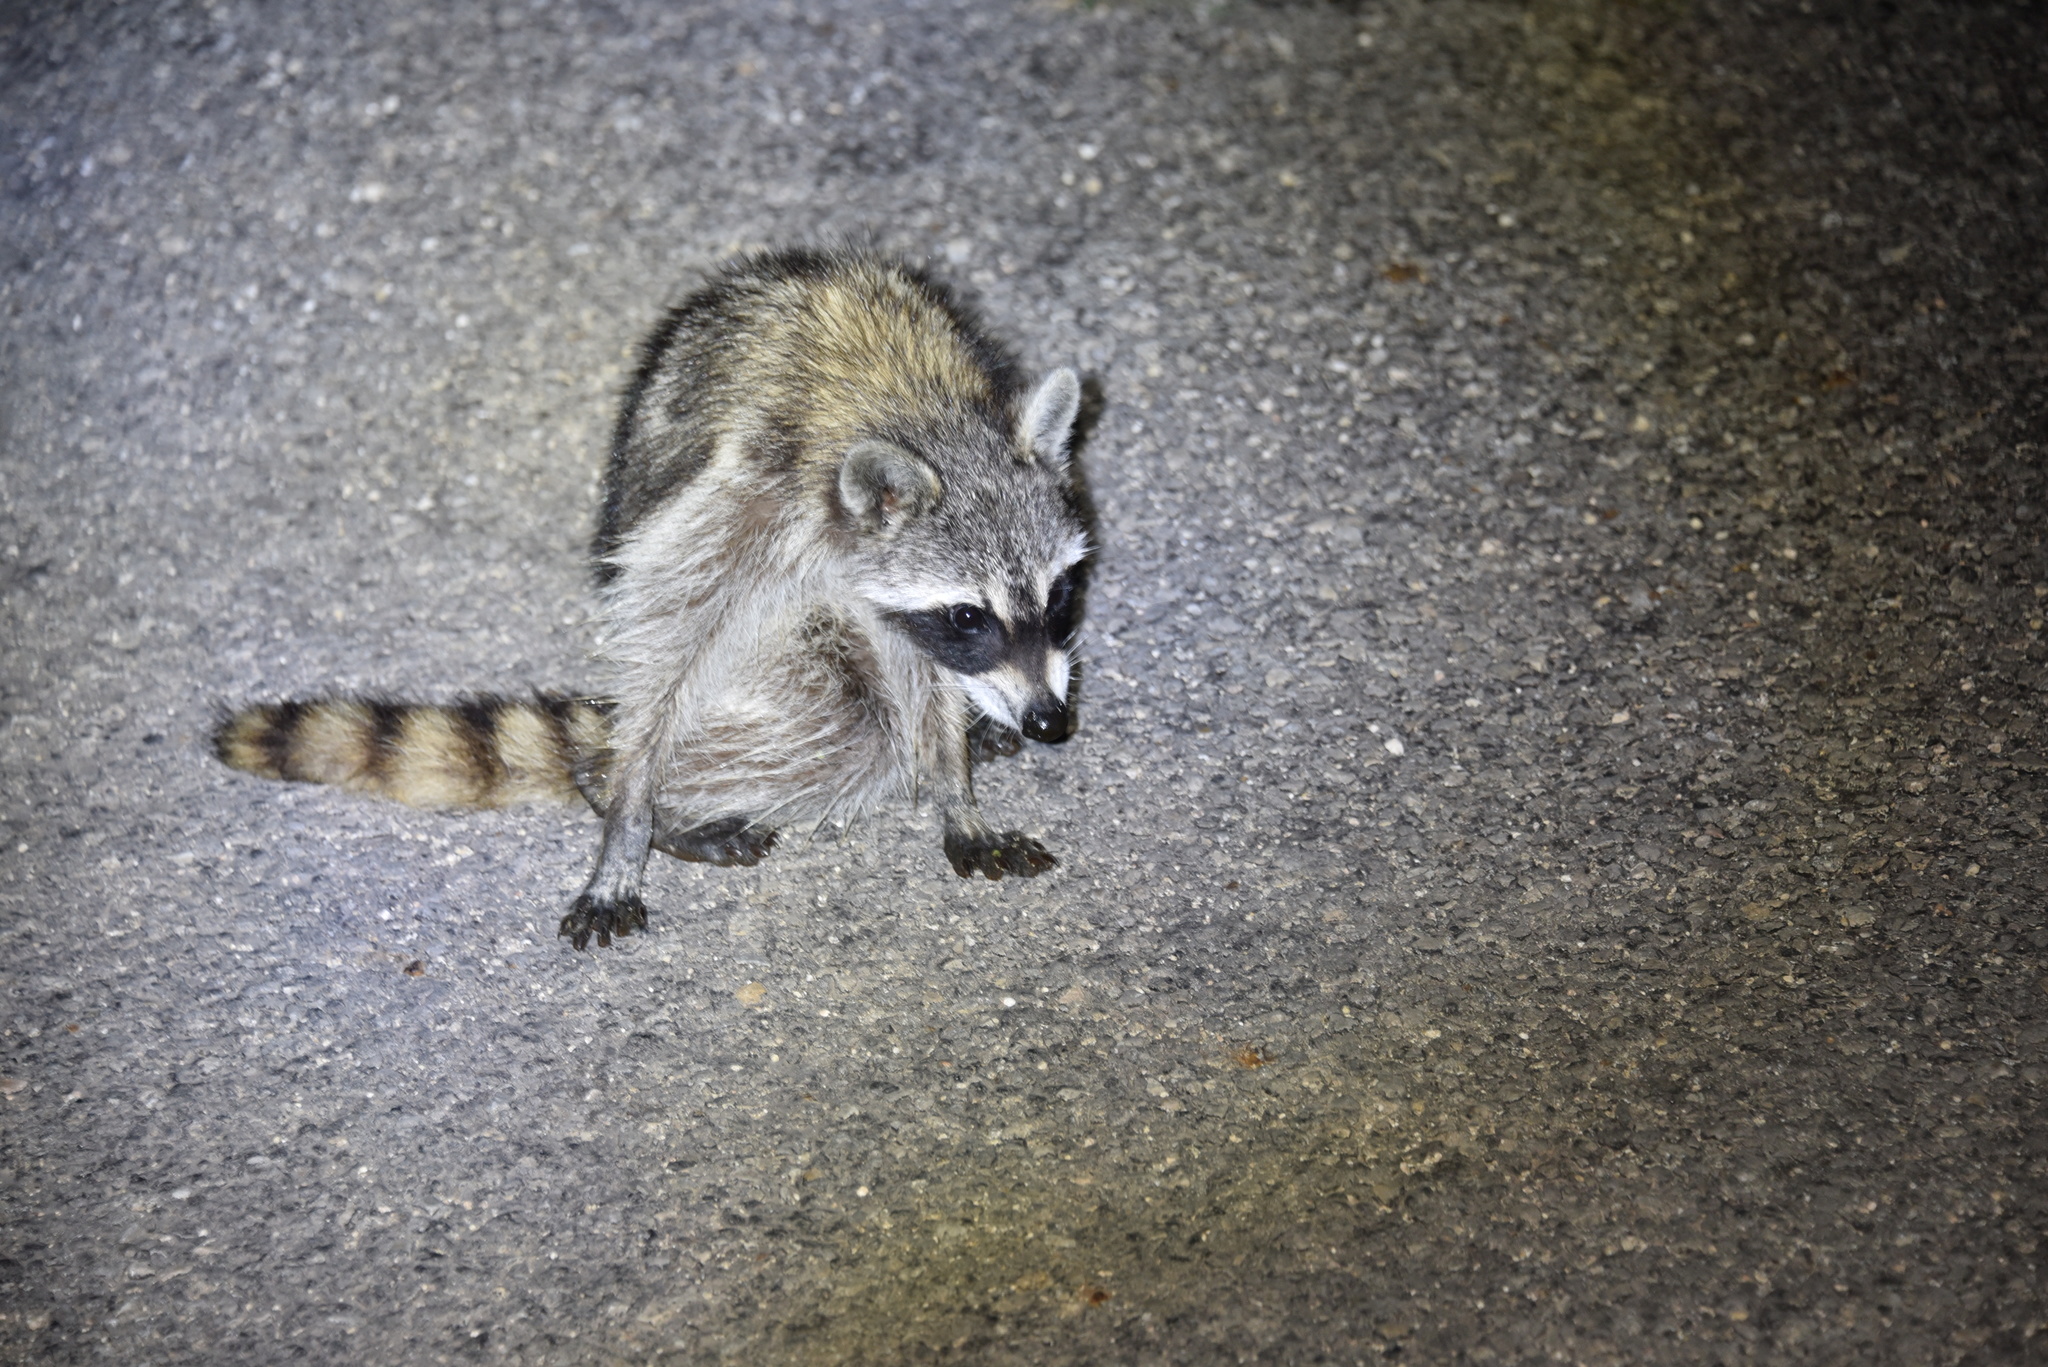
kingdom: Animalia
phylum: Chordata
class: Mammalia
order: Carnivora
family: Procyonidae
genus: Procyon
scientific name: Procyon lotor
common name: Raccoon
